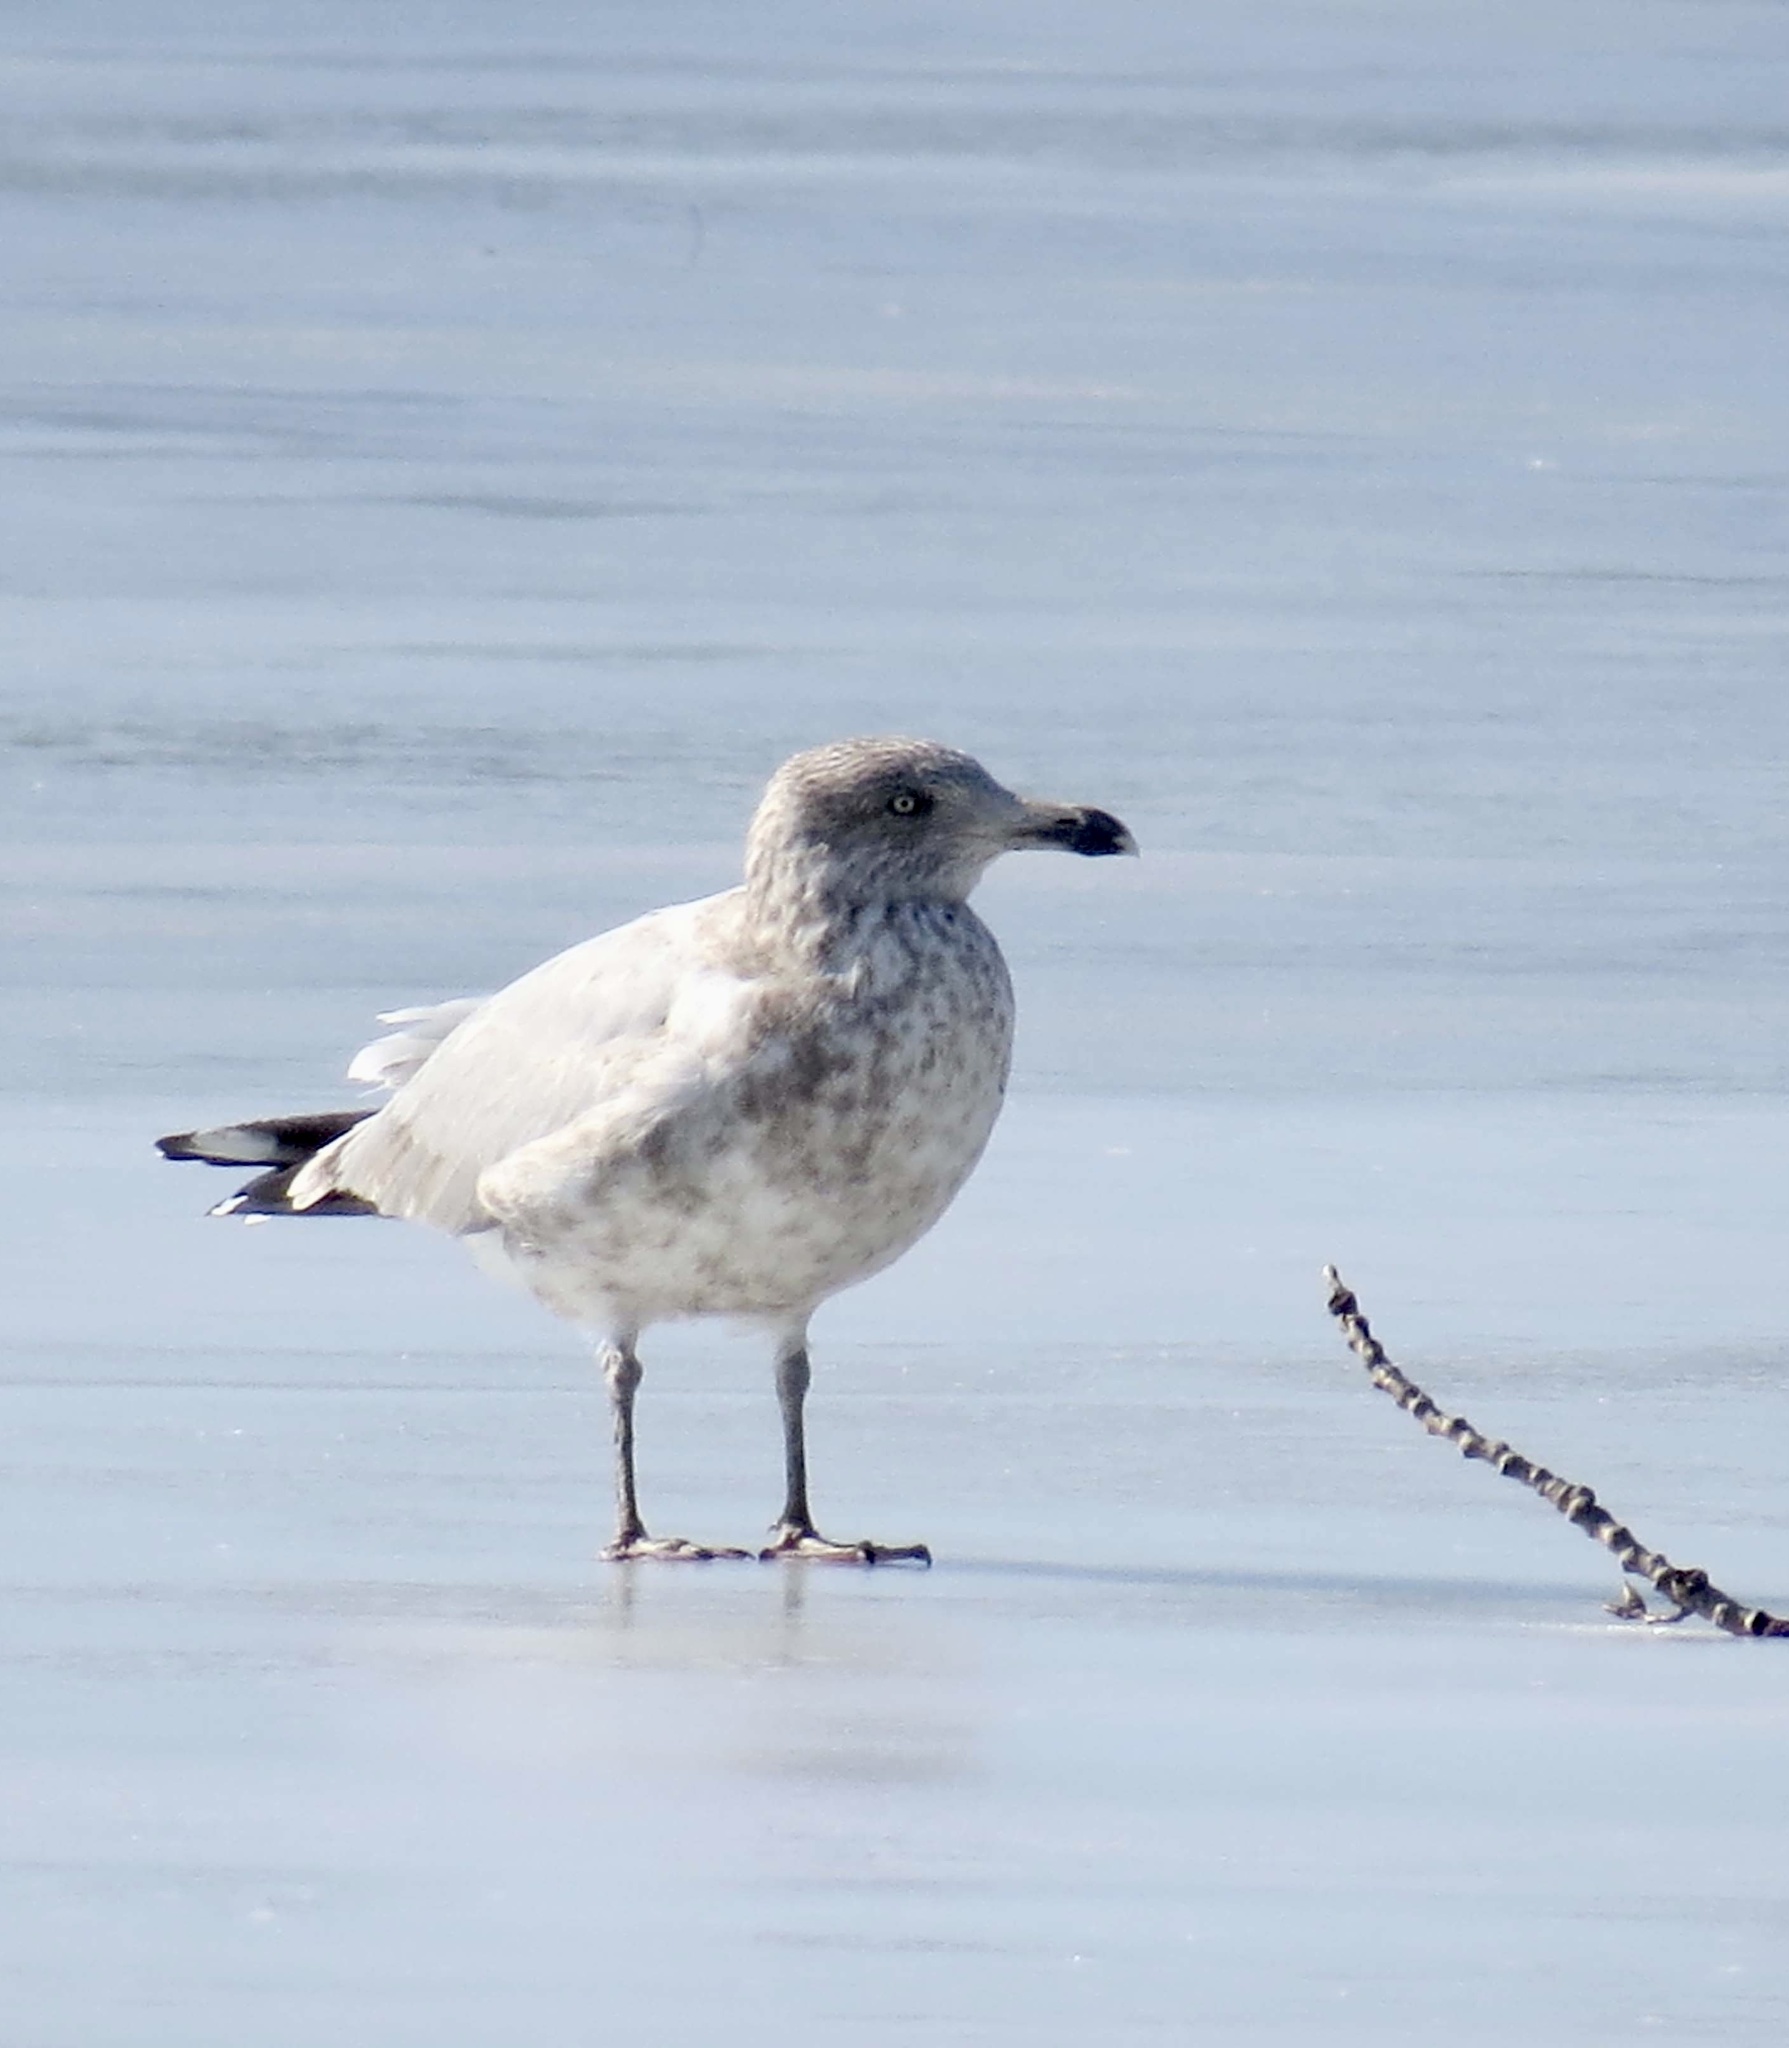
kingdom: Animalia
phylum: Chordata
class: Aves
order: Charadriiformes
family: Laridae
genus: Larus
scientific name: Larus argentatus
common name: Herring gull
